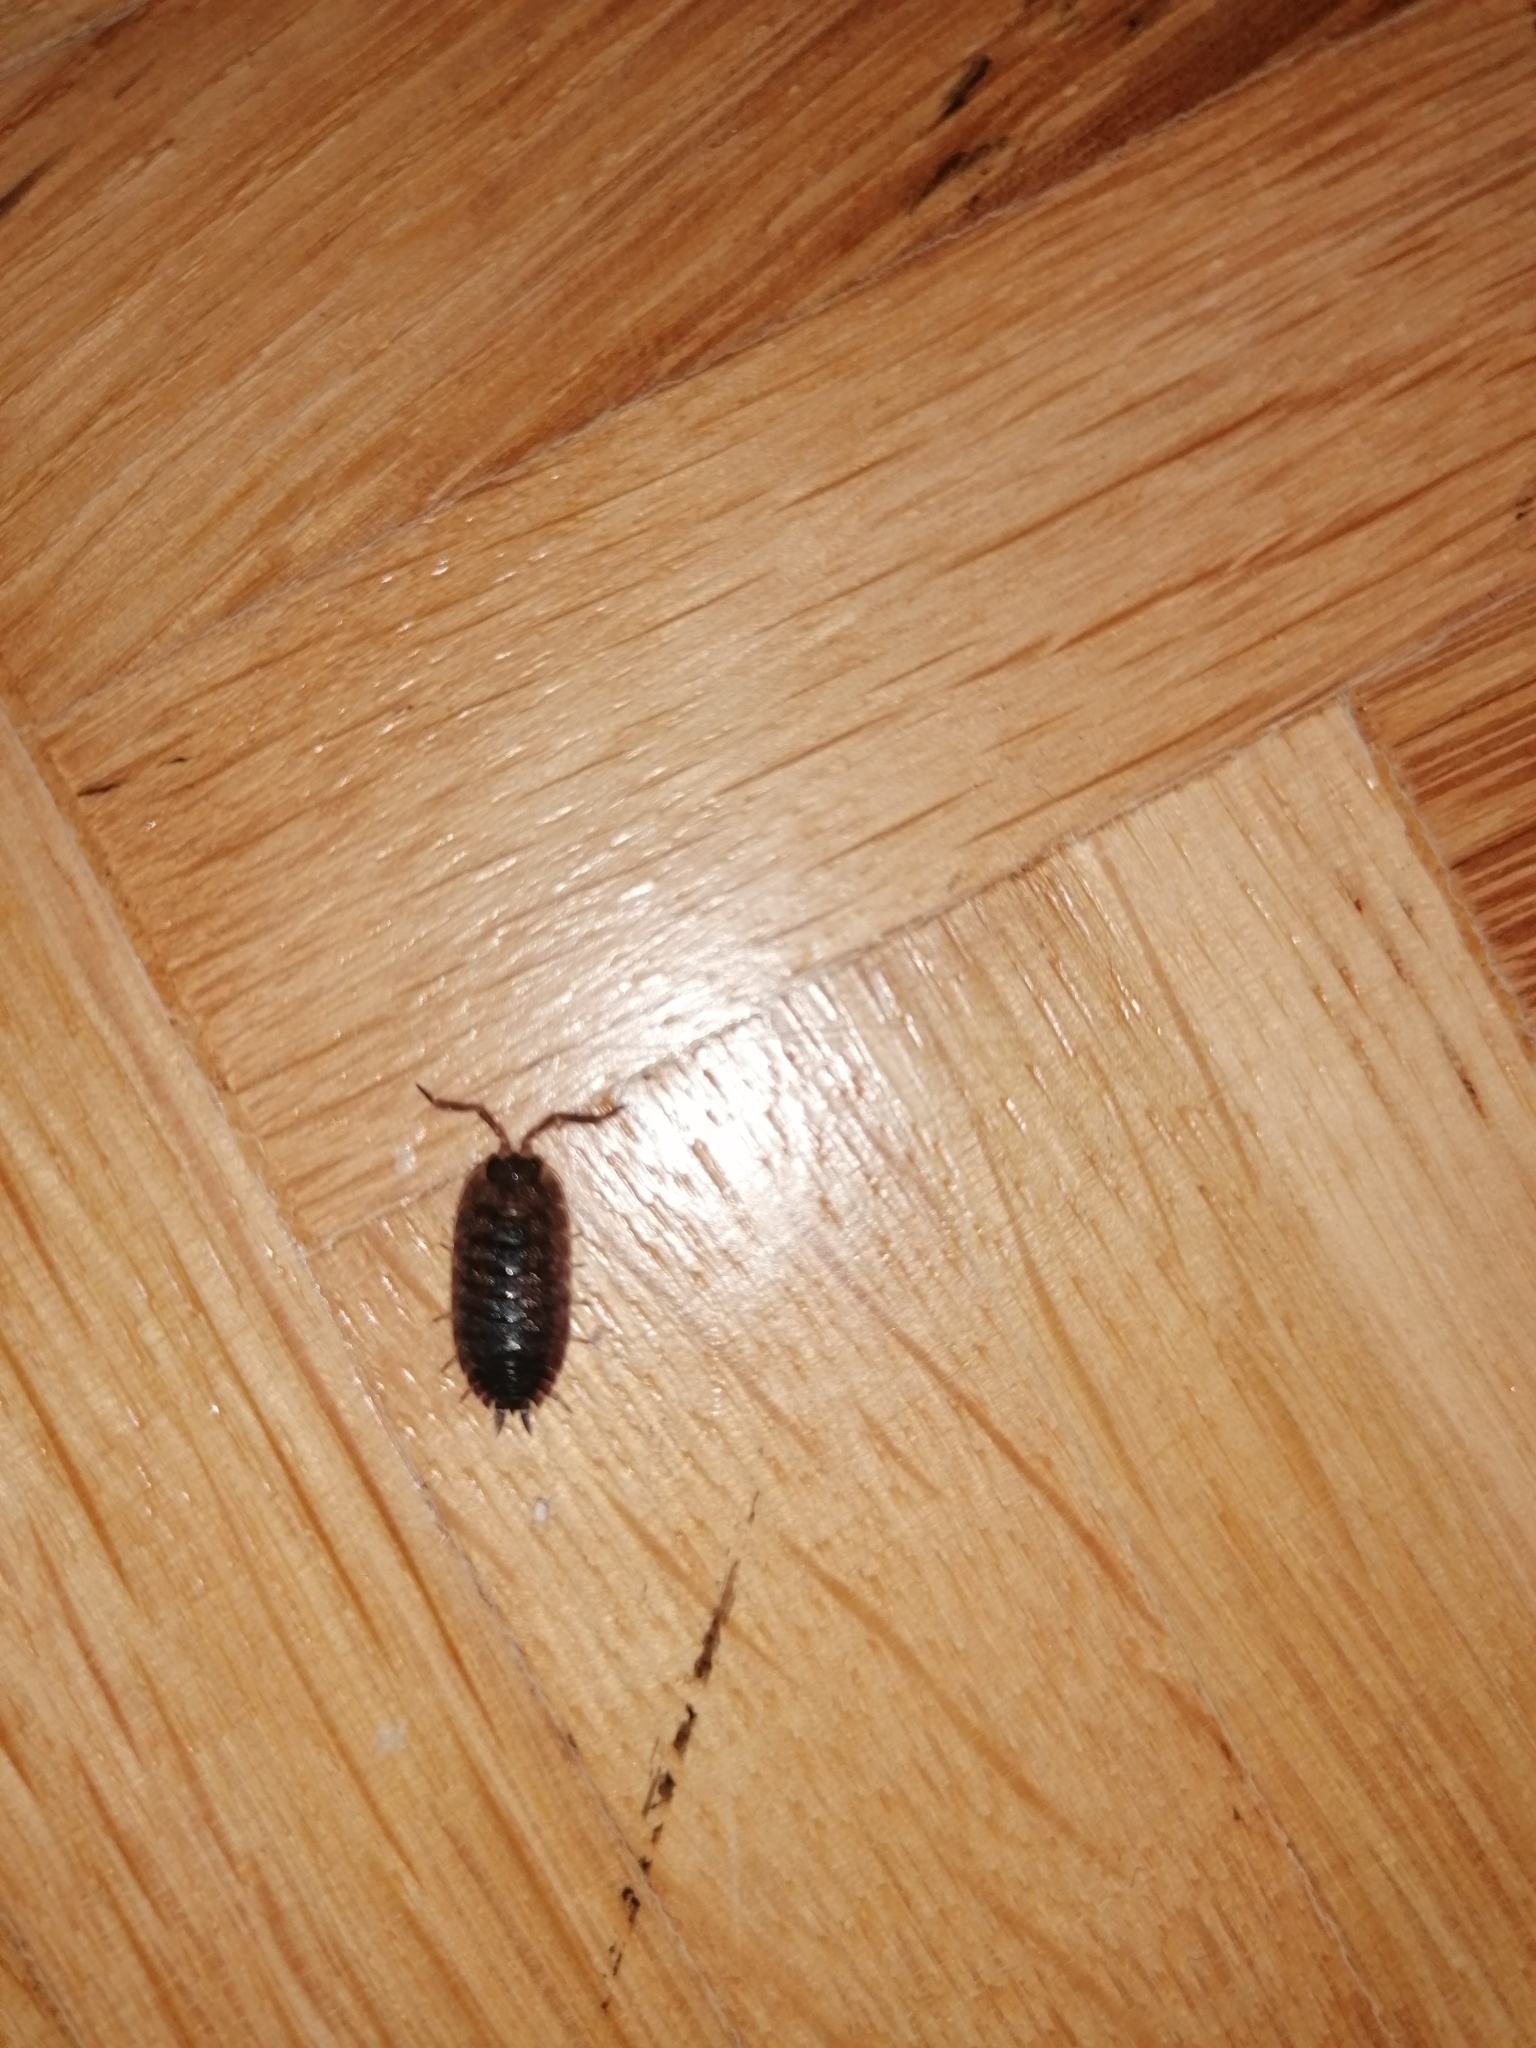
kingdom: Animalia
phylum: Arthropoda
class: Malacostraca
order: Isopoda
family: Porcellionidae
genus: Porcellio
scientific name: Porcellio scaber
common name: Common rough woodlouse
